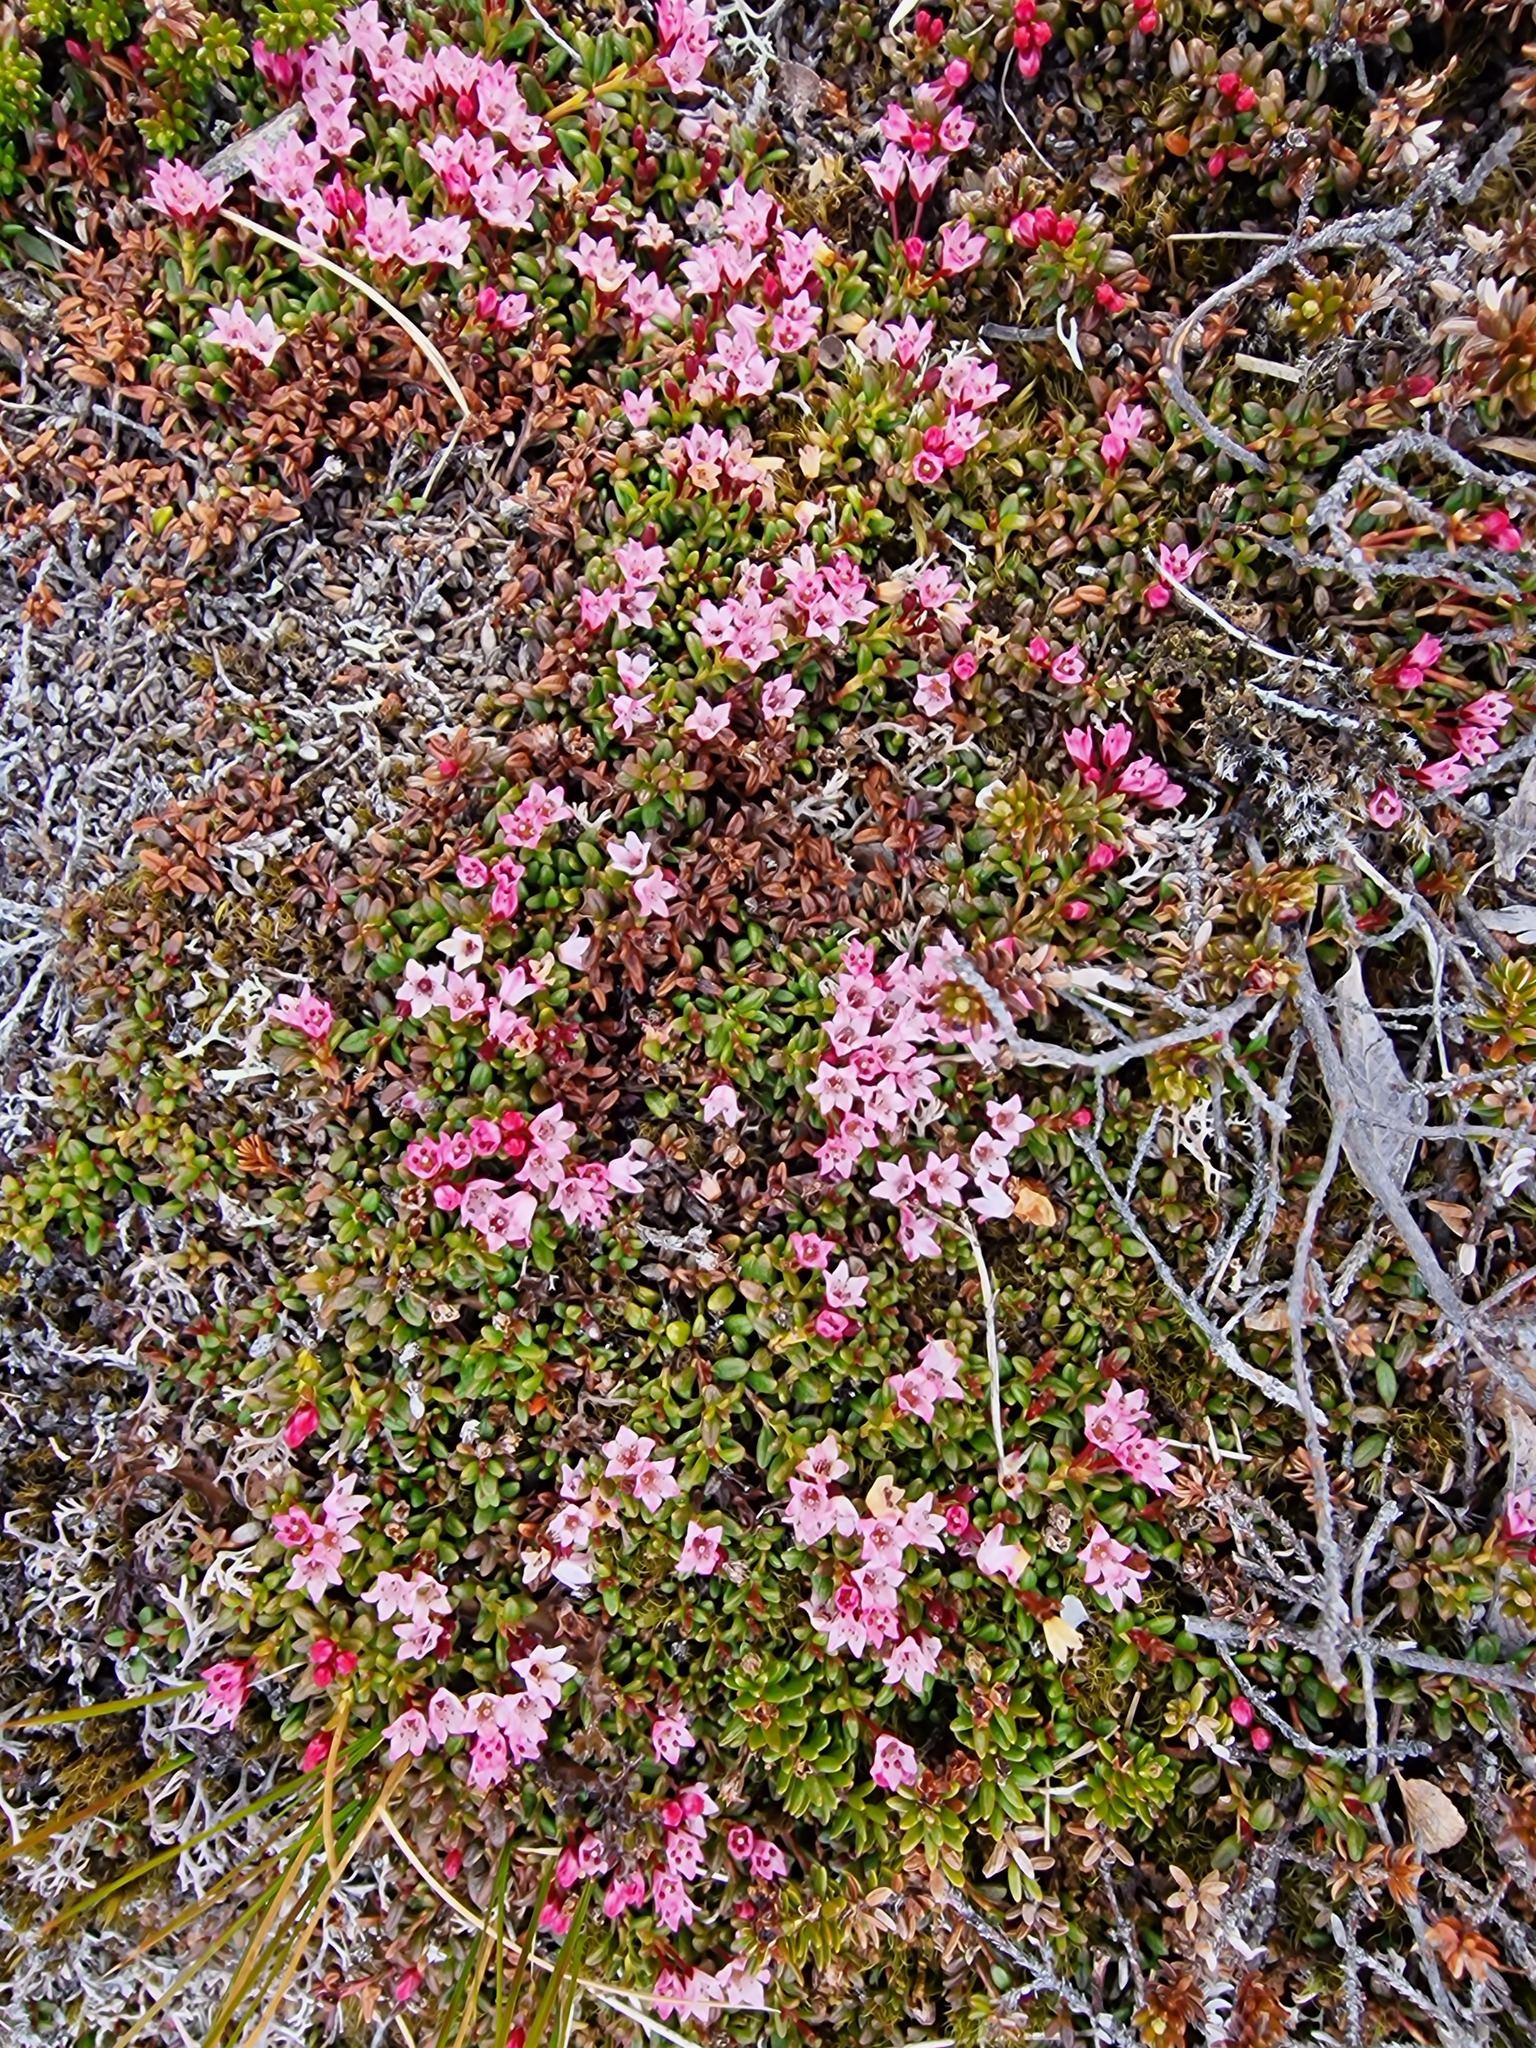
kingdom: Plantae
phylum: Tracheophyta
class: Magnoliopsida
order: Ericales
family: Ericaceae
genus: Kalmia
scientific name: Kalmia procumbens
